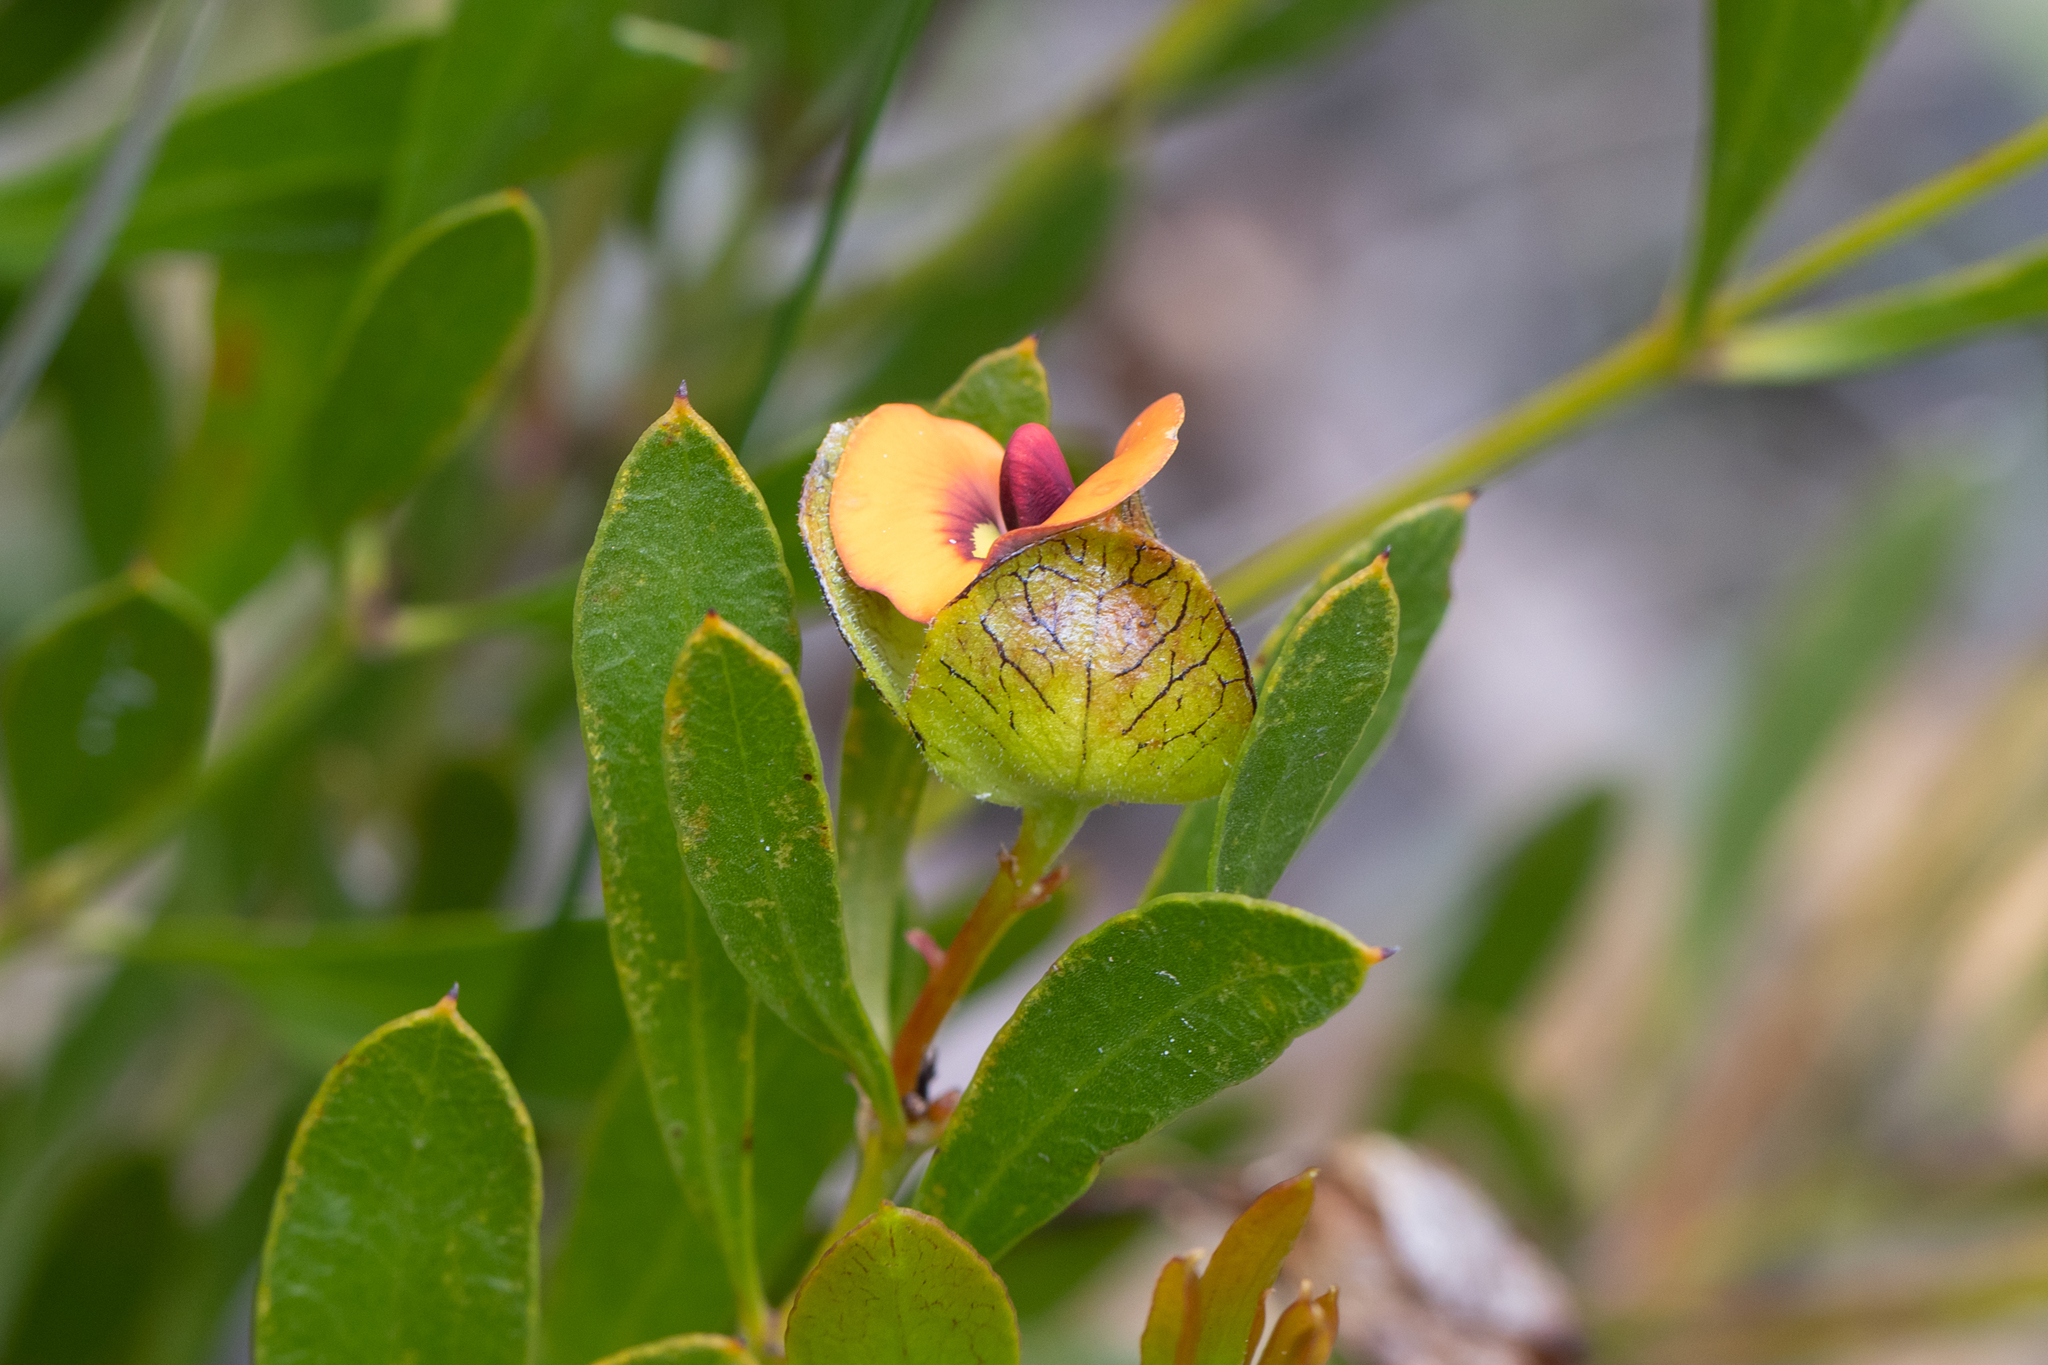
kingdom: Plantae
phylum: Tracheophyta
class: Magnoliopsida
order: Fabales
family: Fabaceae
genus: Daviesia
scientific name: Daviesia alternifolia
